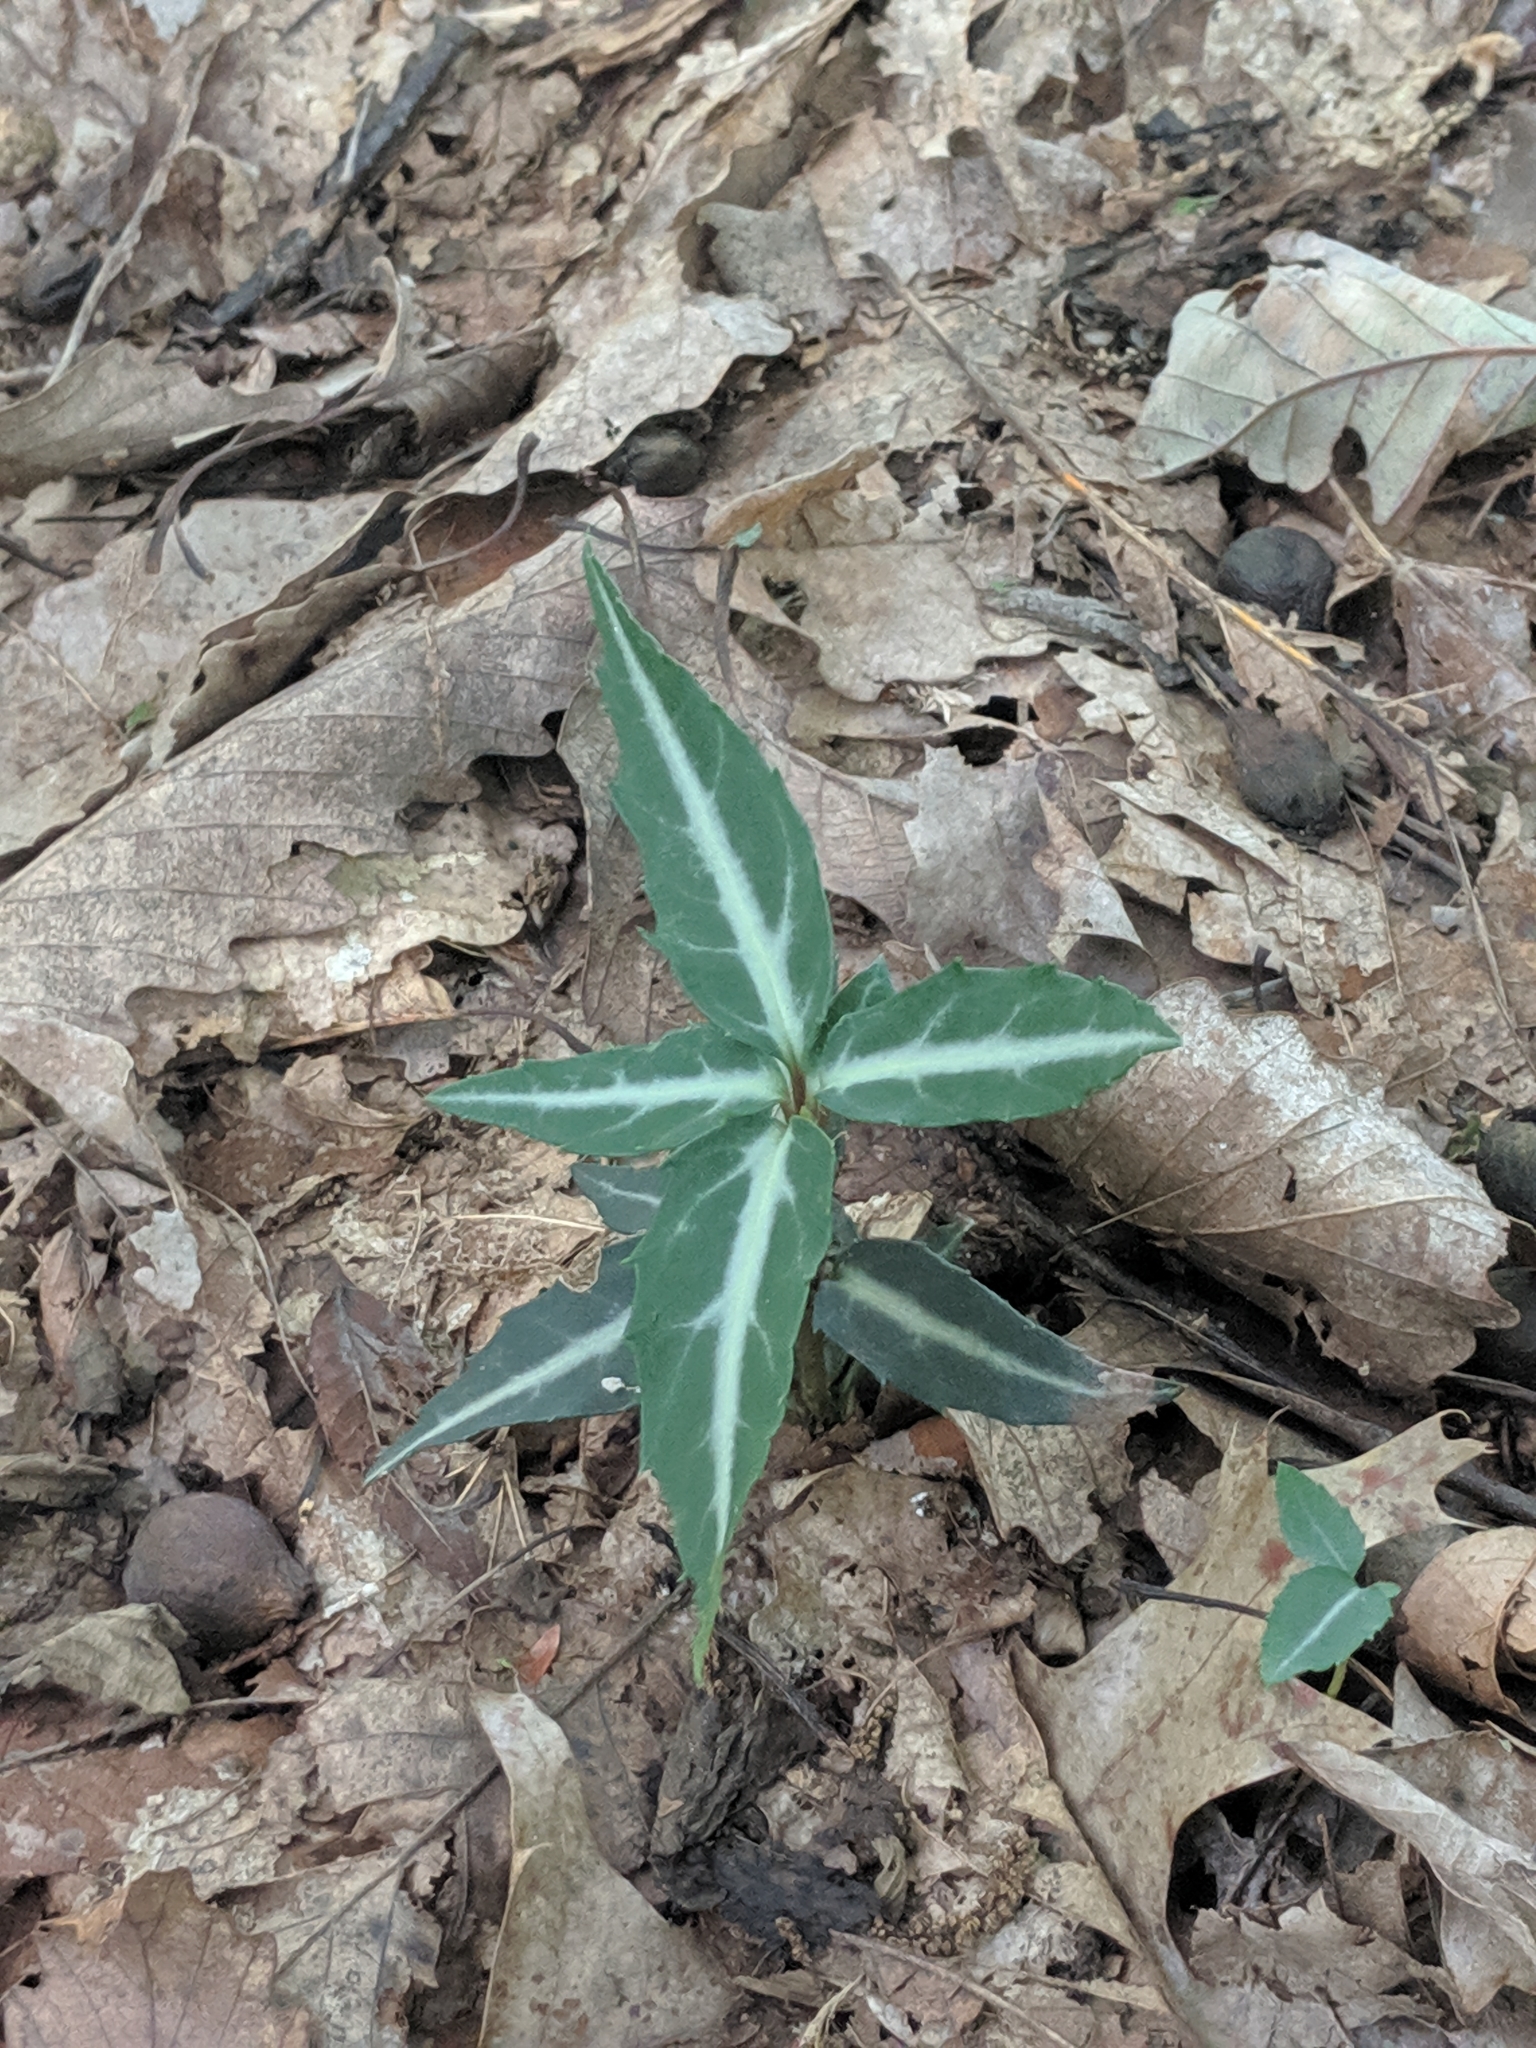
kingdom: Plantae
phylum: Tracheophyta
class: Magnoliopsida
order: Ericales
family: Ericaceae
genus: Chimaphila
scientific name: Chimaphila maculata
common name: Spotted pipsissewa
